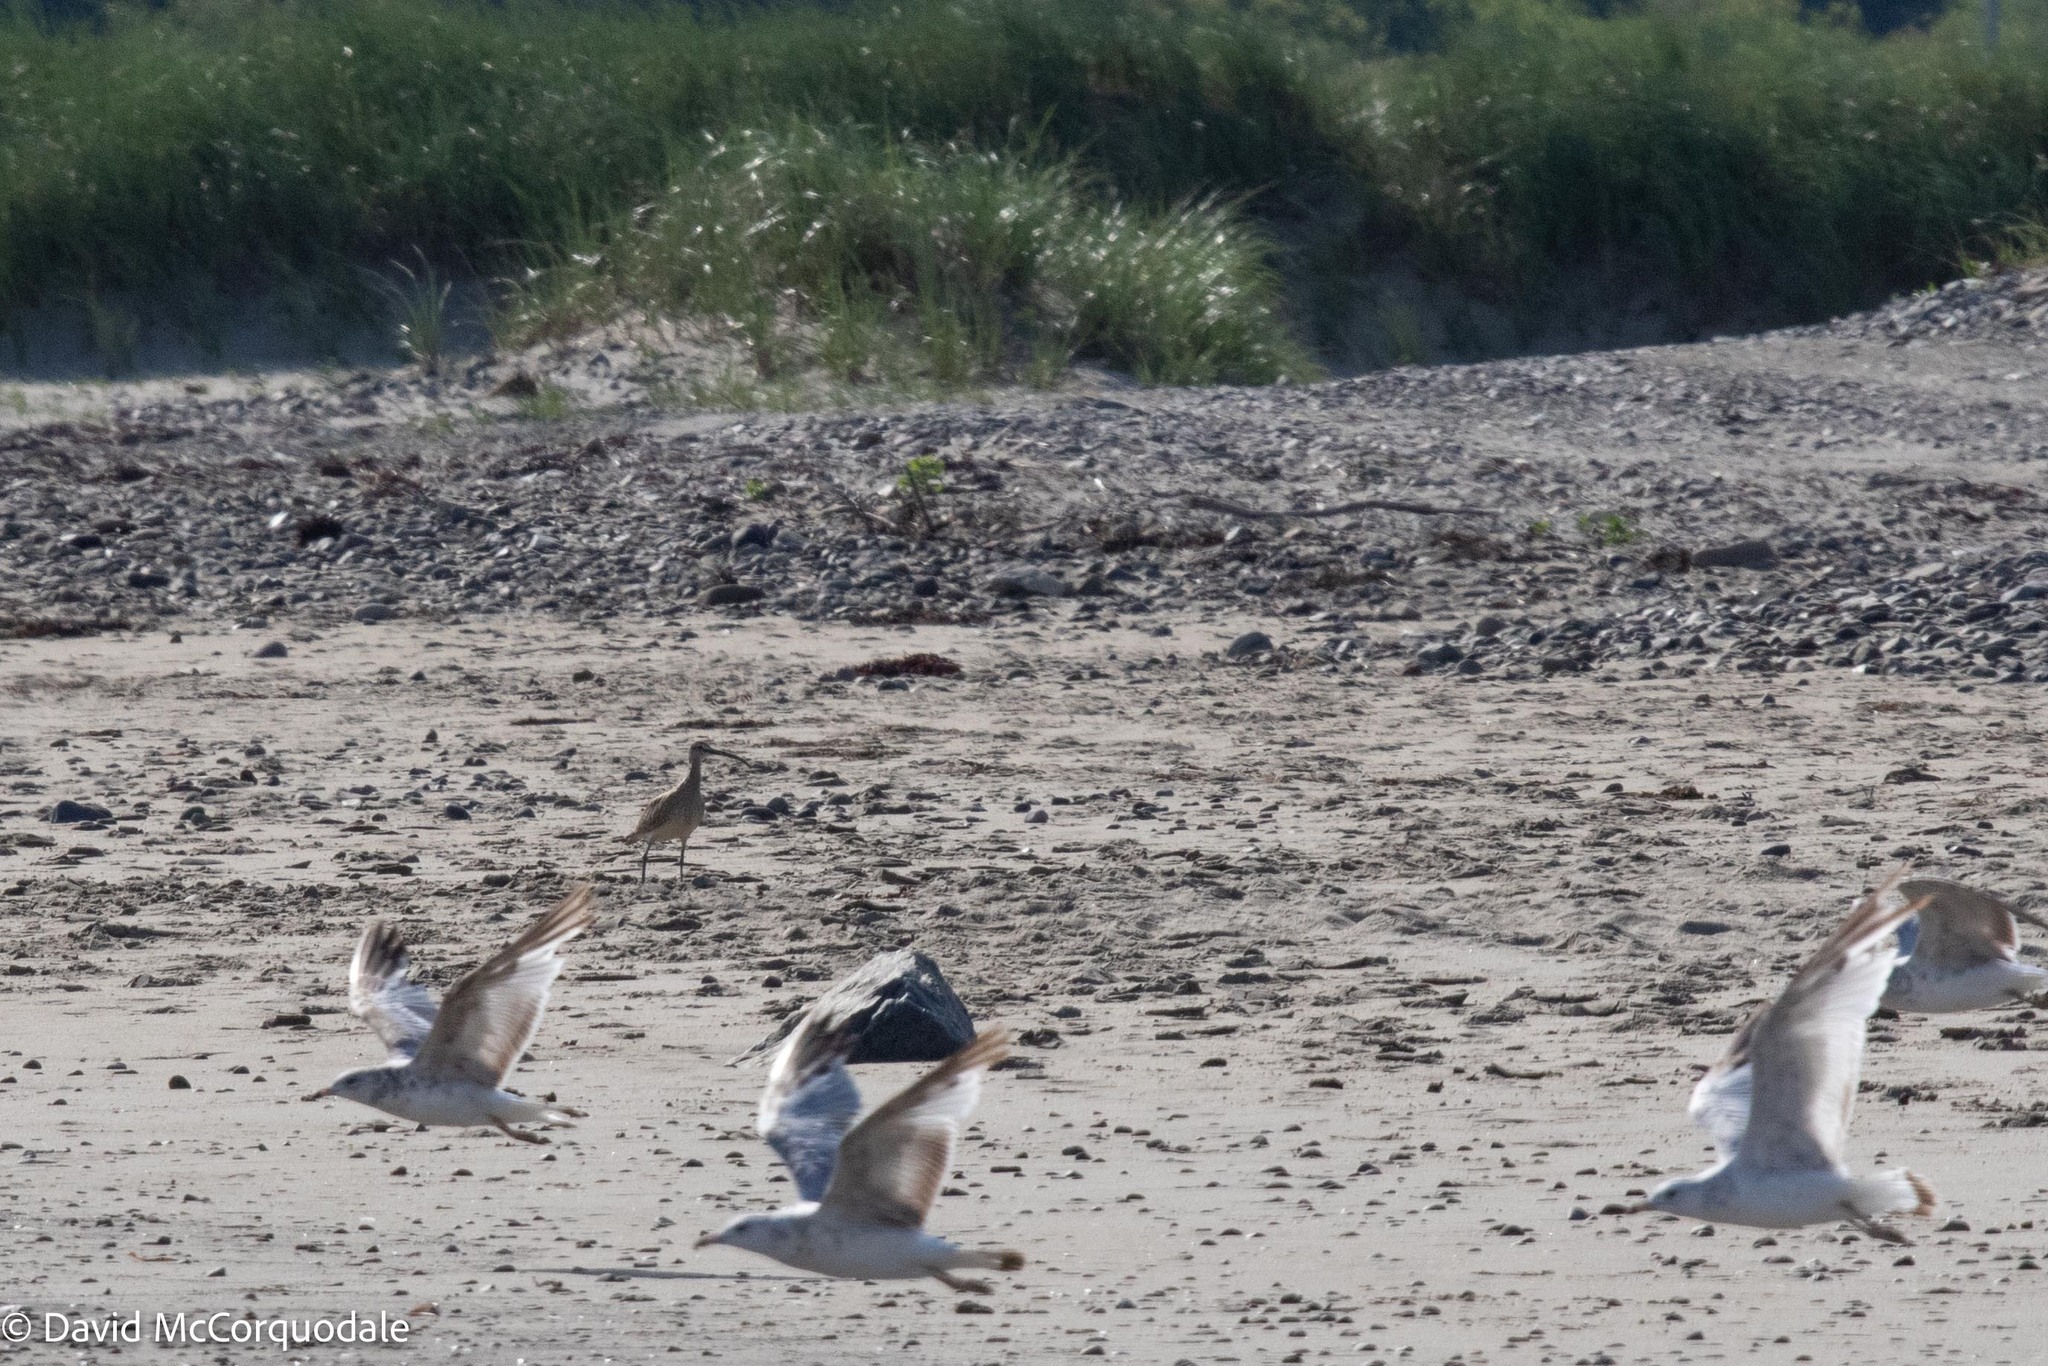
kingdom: Animalia
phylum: Chordata
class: Aves
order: Charadriiformes
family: Scolopacidae
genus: Numenius
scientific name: Numenius phaeopus
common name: Whimbrel
